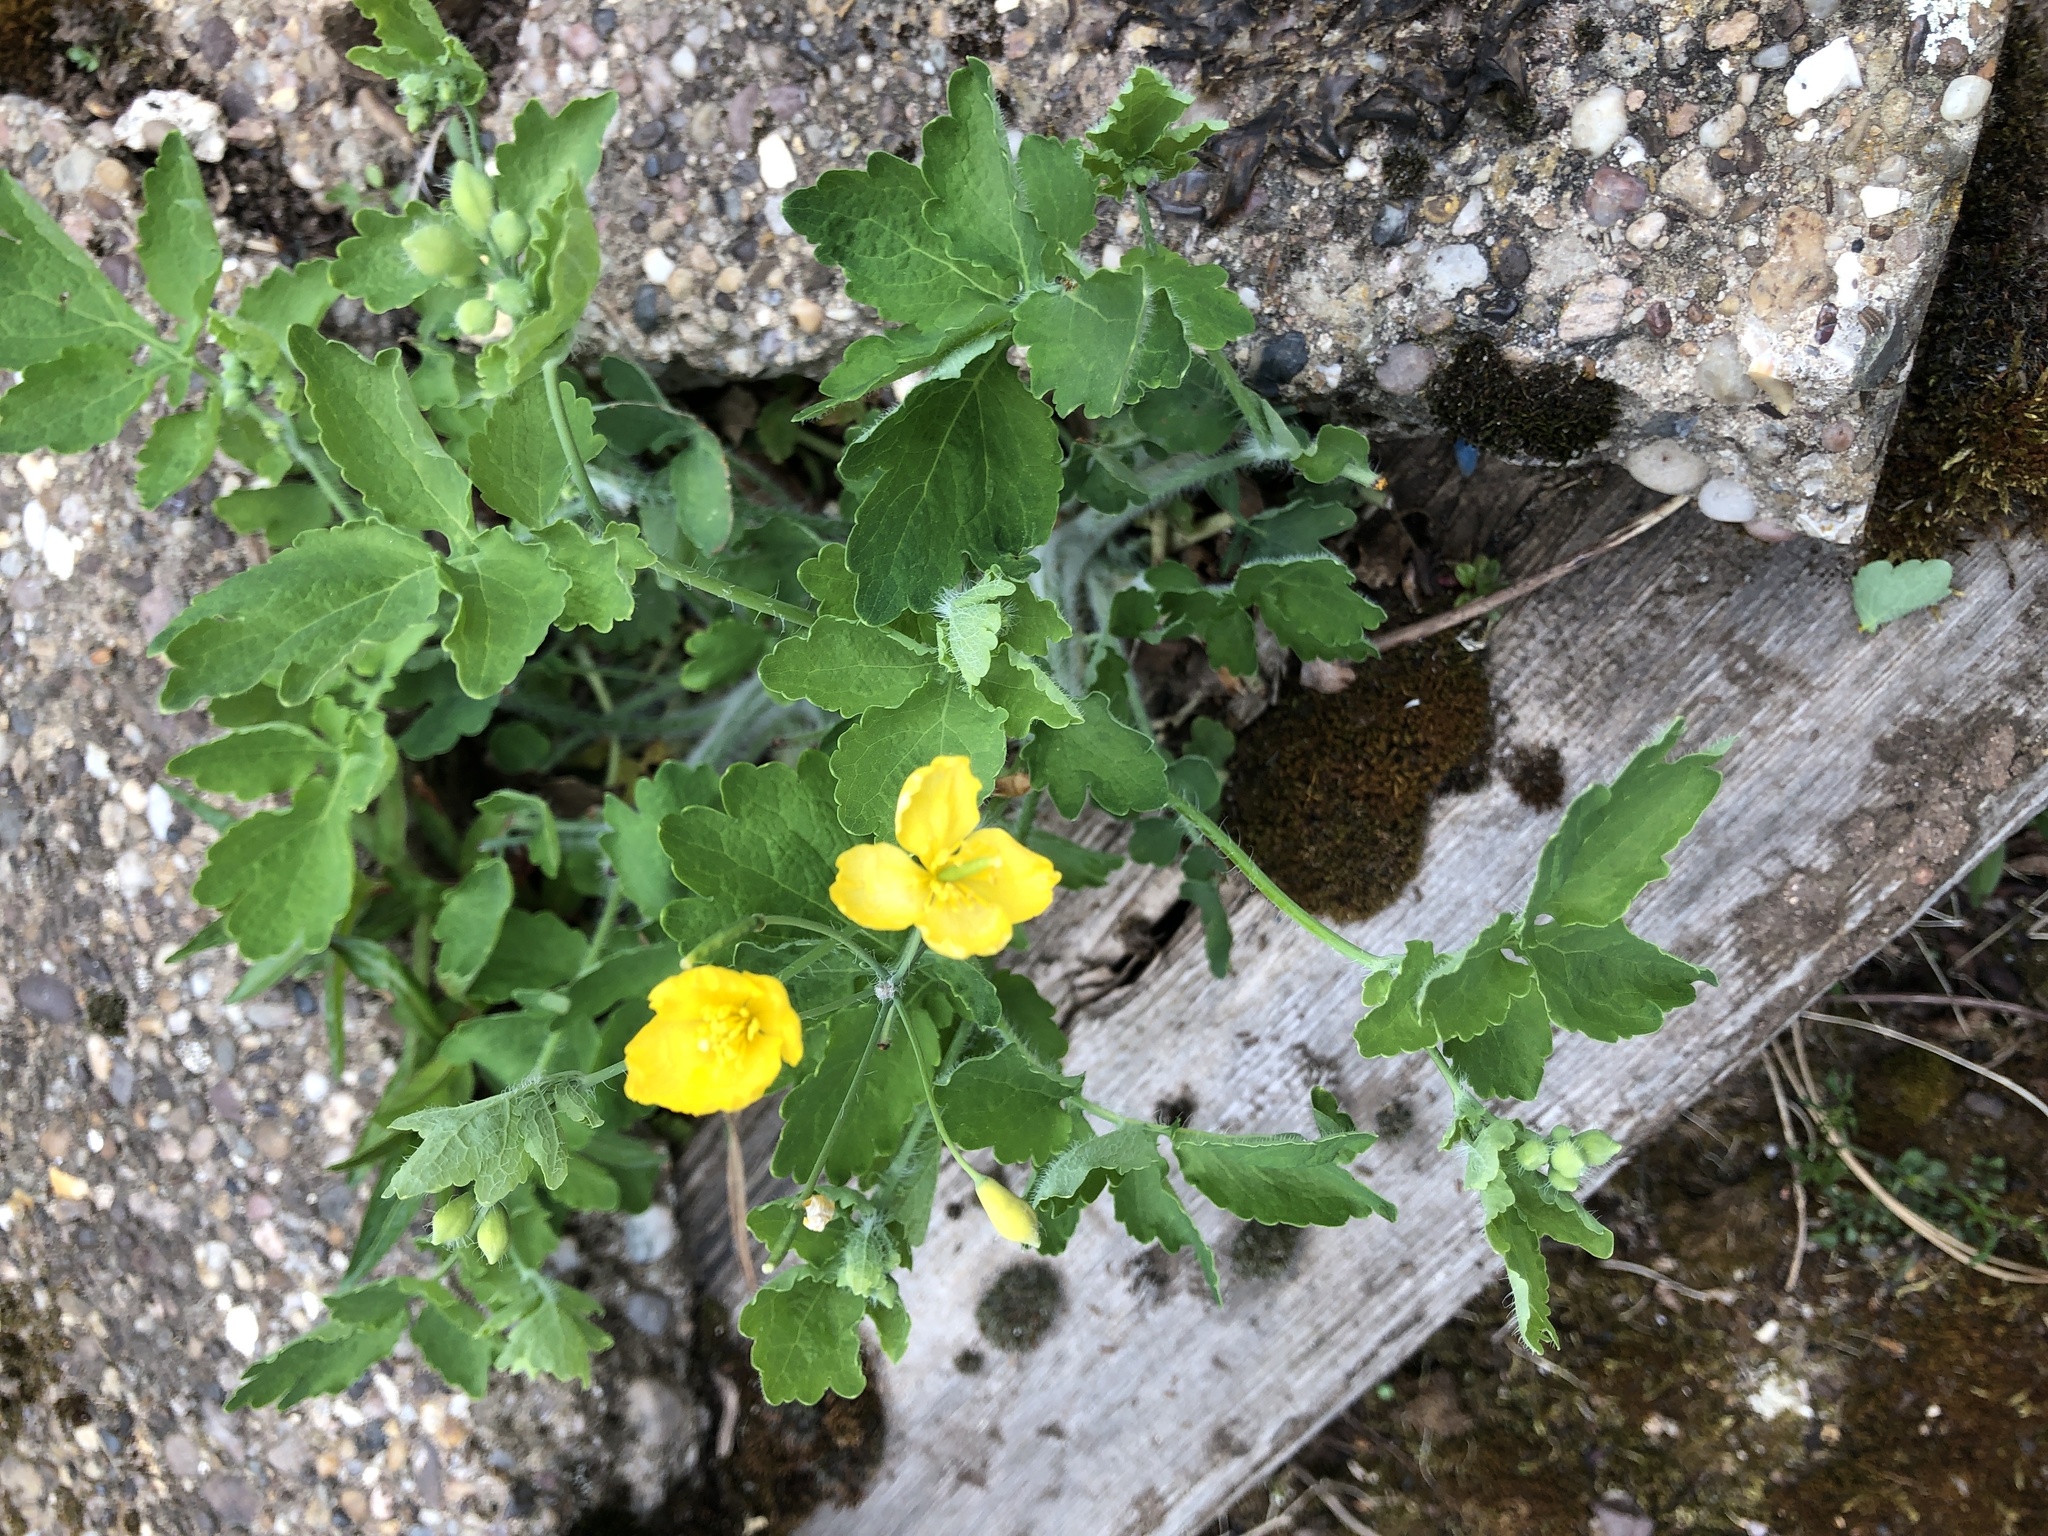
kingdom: Plantae
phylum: Tracheophyta
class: Magnoliopsida
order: Ranunculales
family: Papaveraceae
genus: Chelidonium
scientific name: Chelidonium majus
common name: Greater celandine
